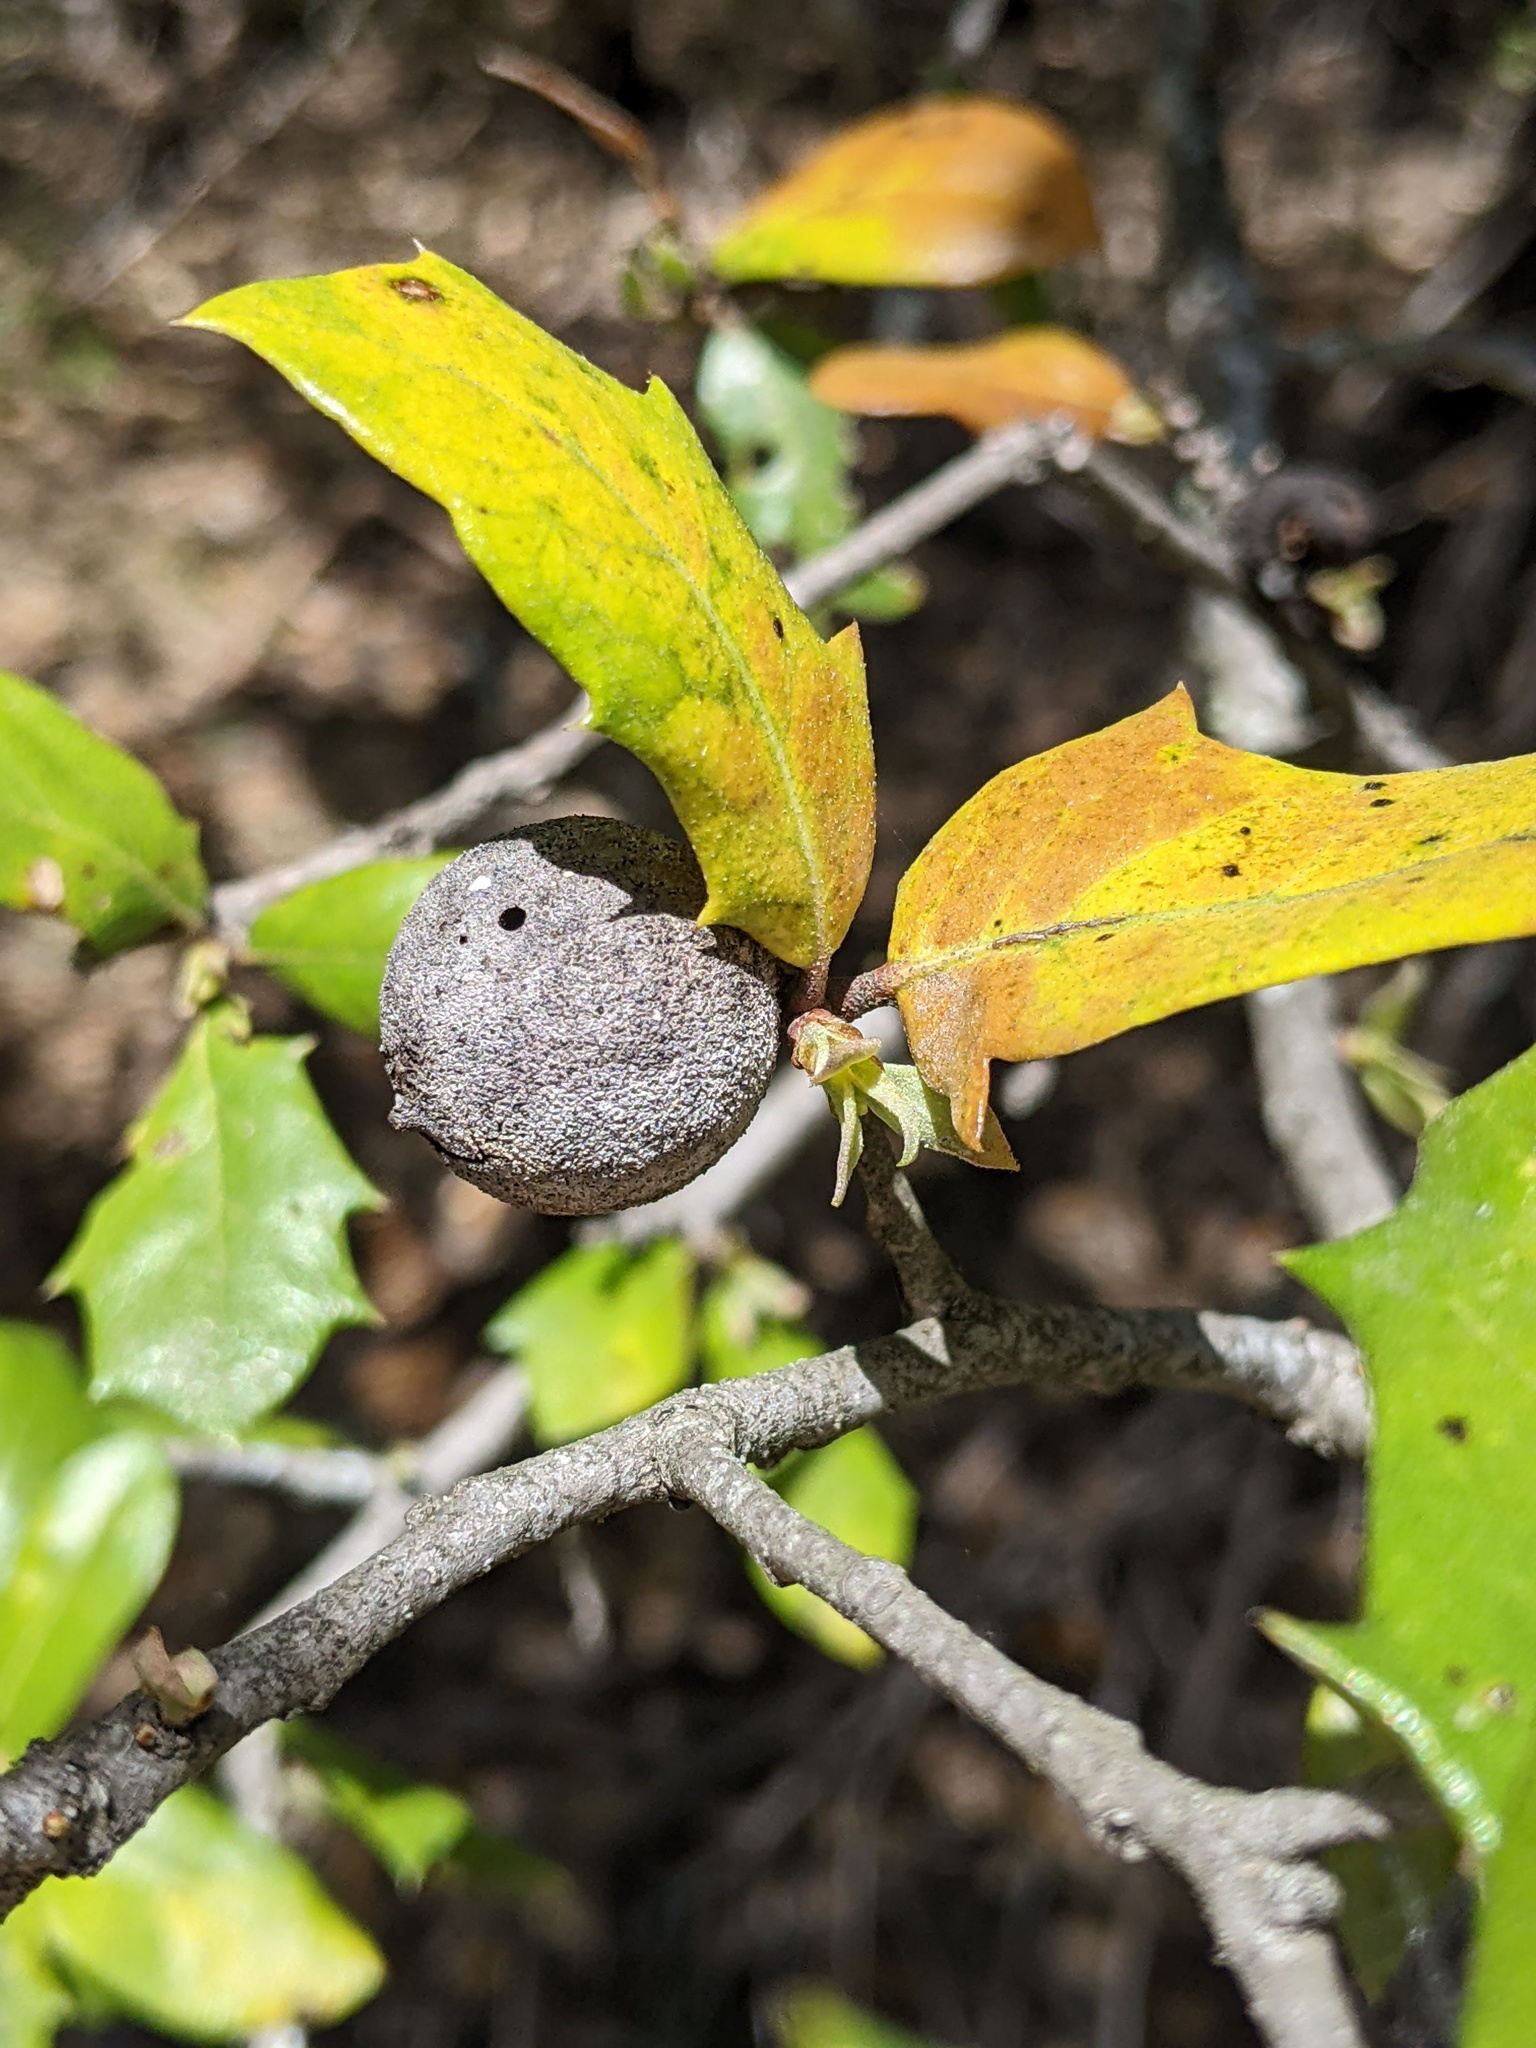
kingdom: Animalia
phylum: Arthropoda
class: Insecta
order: Hymenoptera
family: Cynipidae
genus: Disholcaspis
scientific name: Disholcaspis
